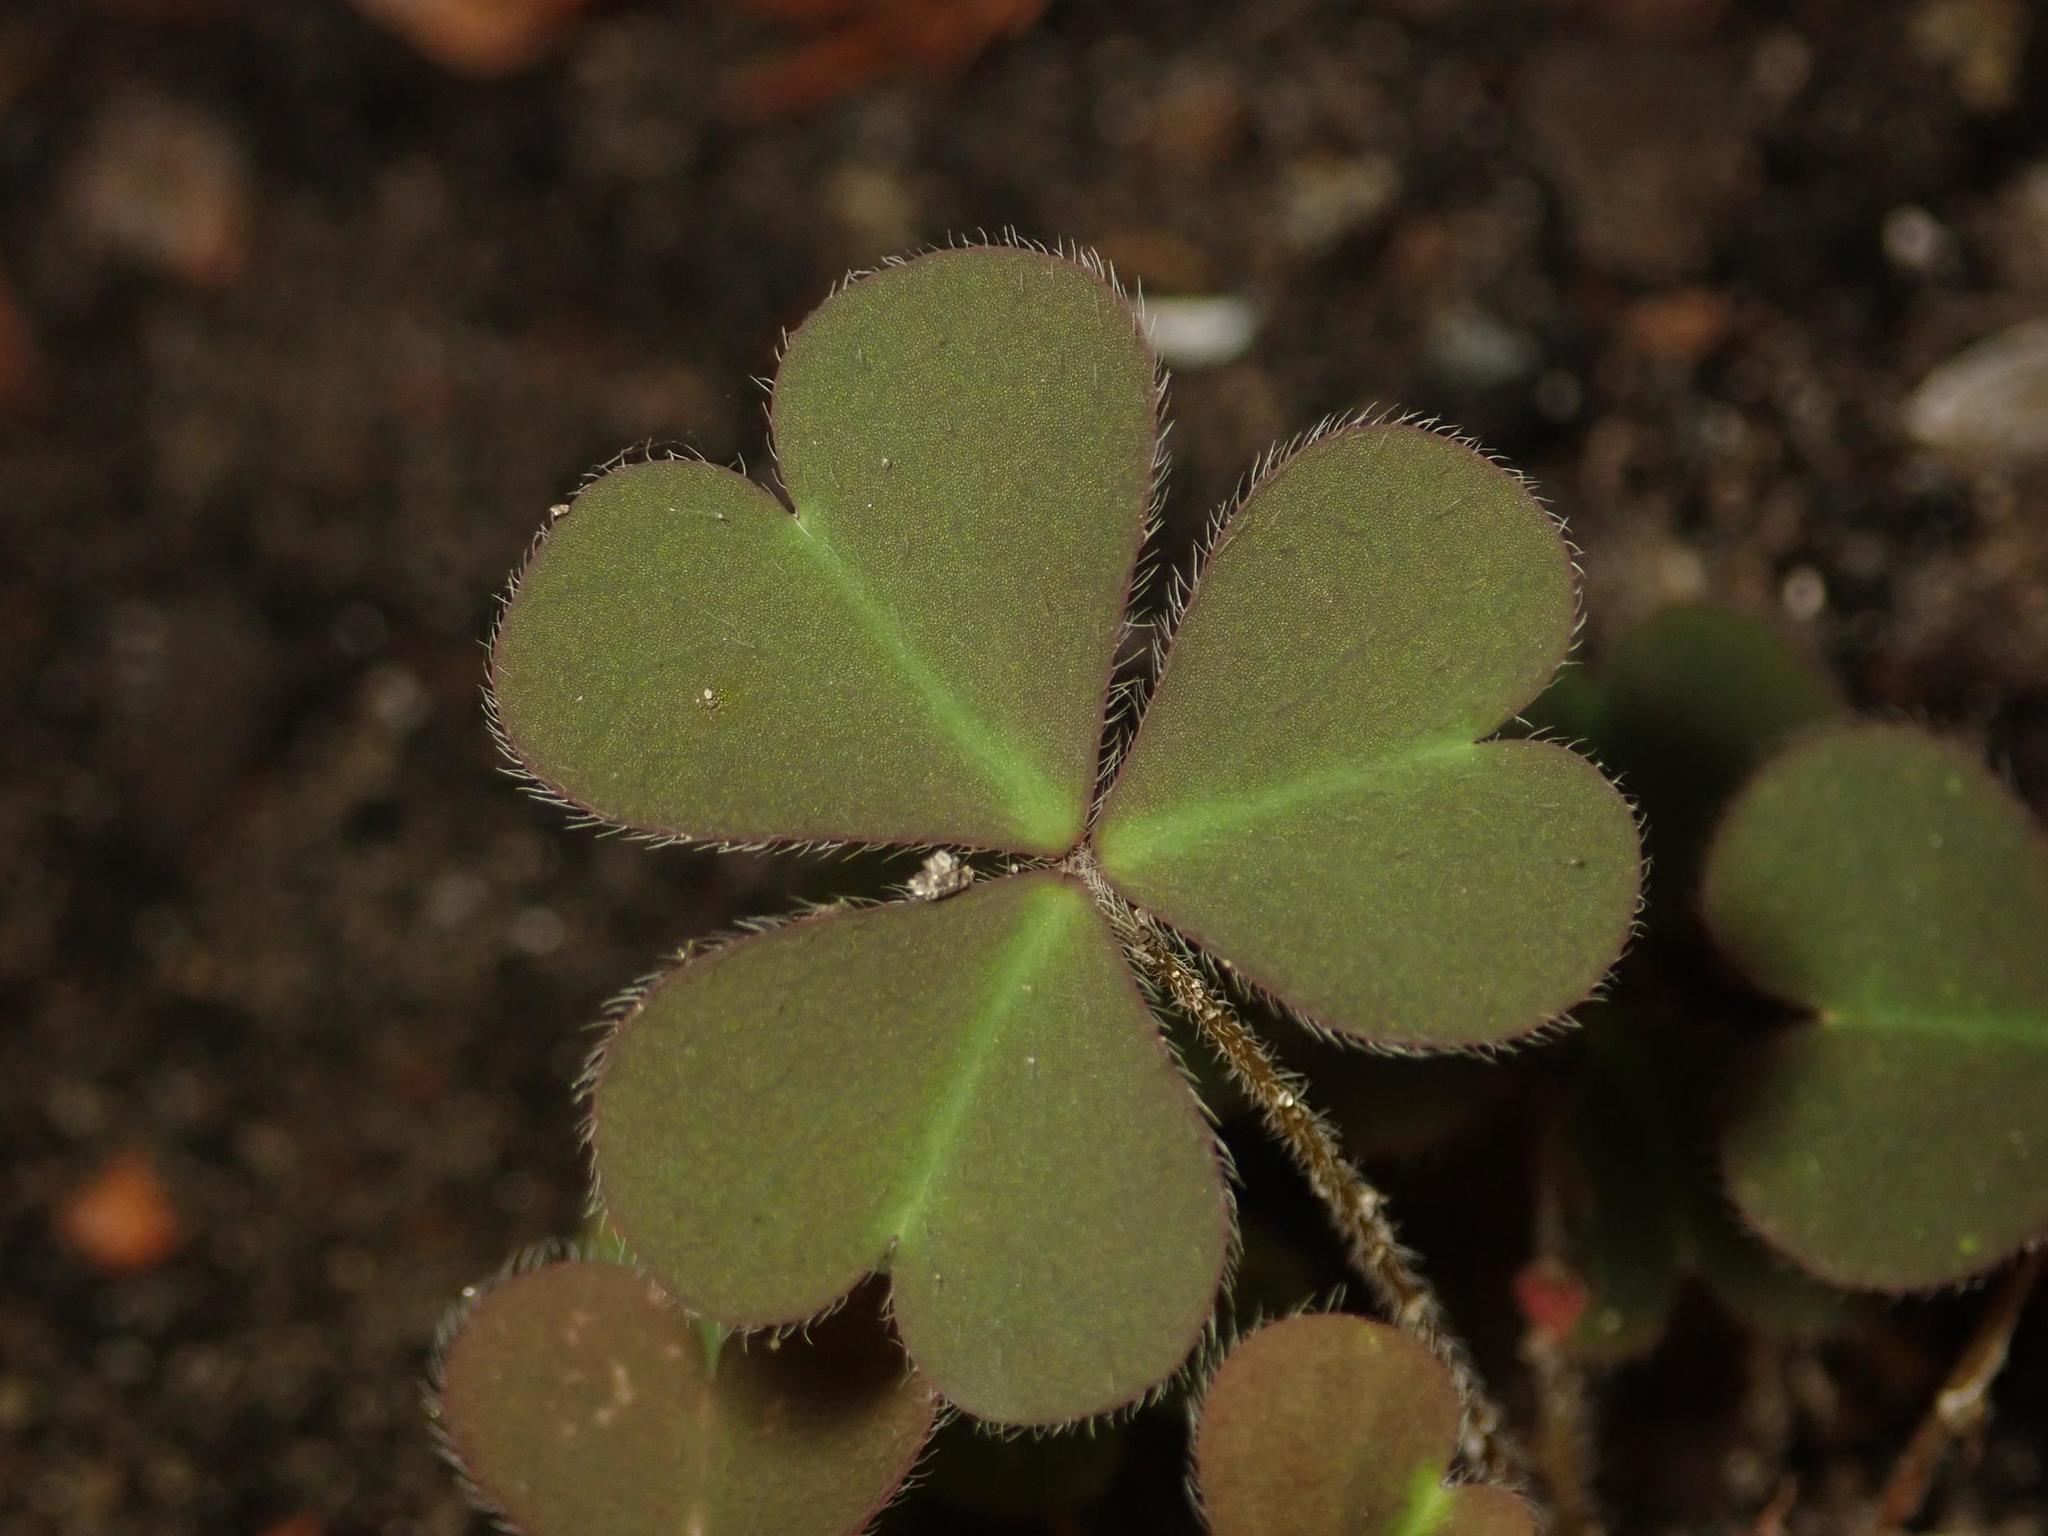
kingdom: Plantae
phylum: Tracheophyta
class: Magnoliopsida
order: Oxalidales
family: Oxalidaceae
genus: Oxalis
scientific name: Oxalis corniculata
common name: Procumbent yellow-sorrel
